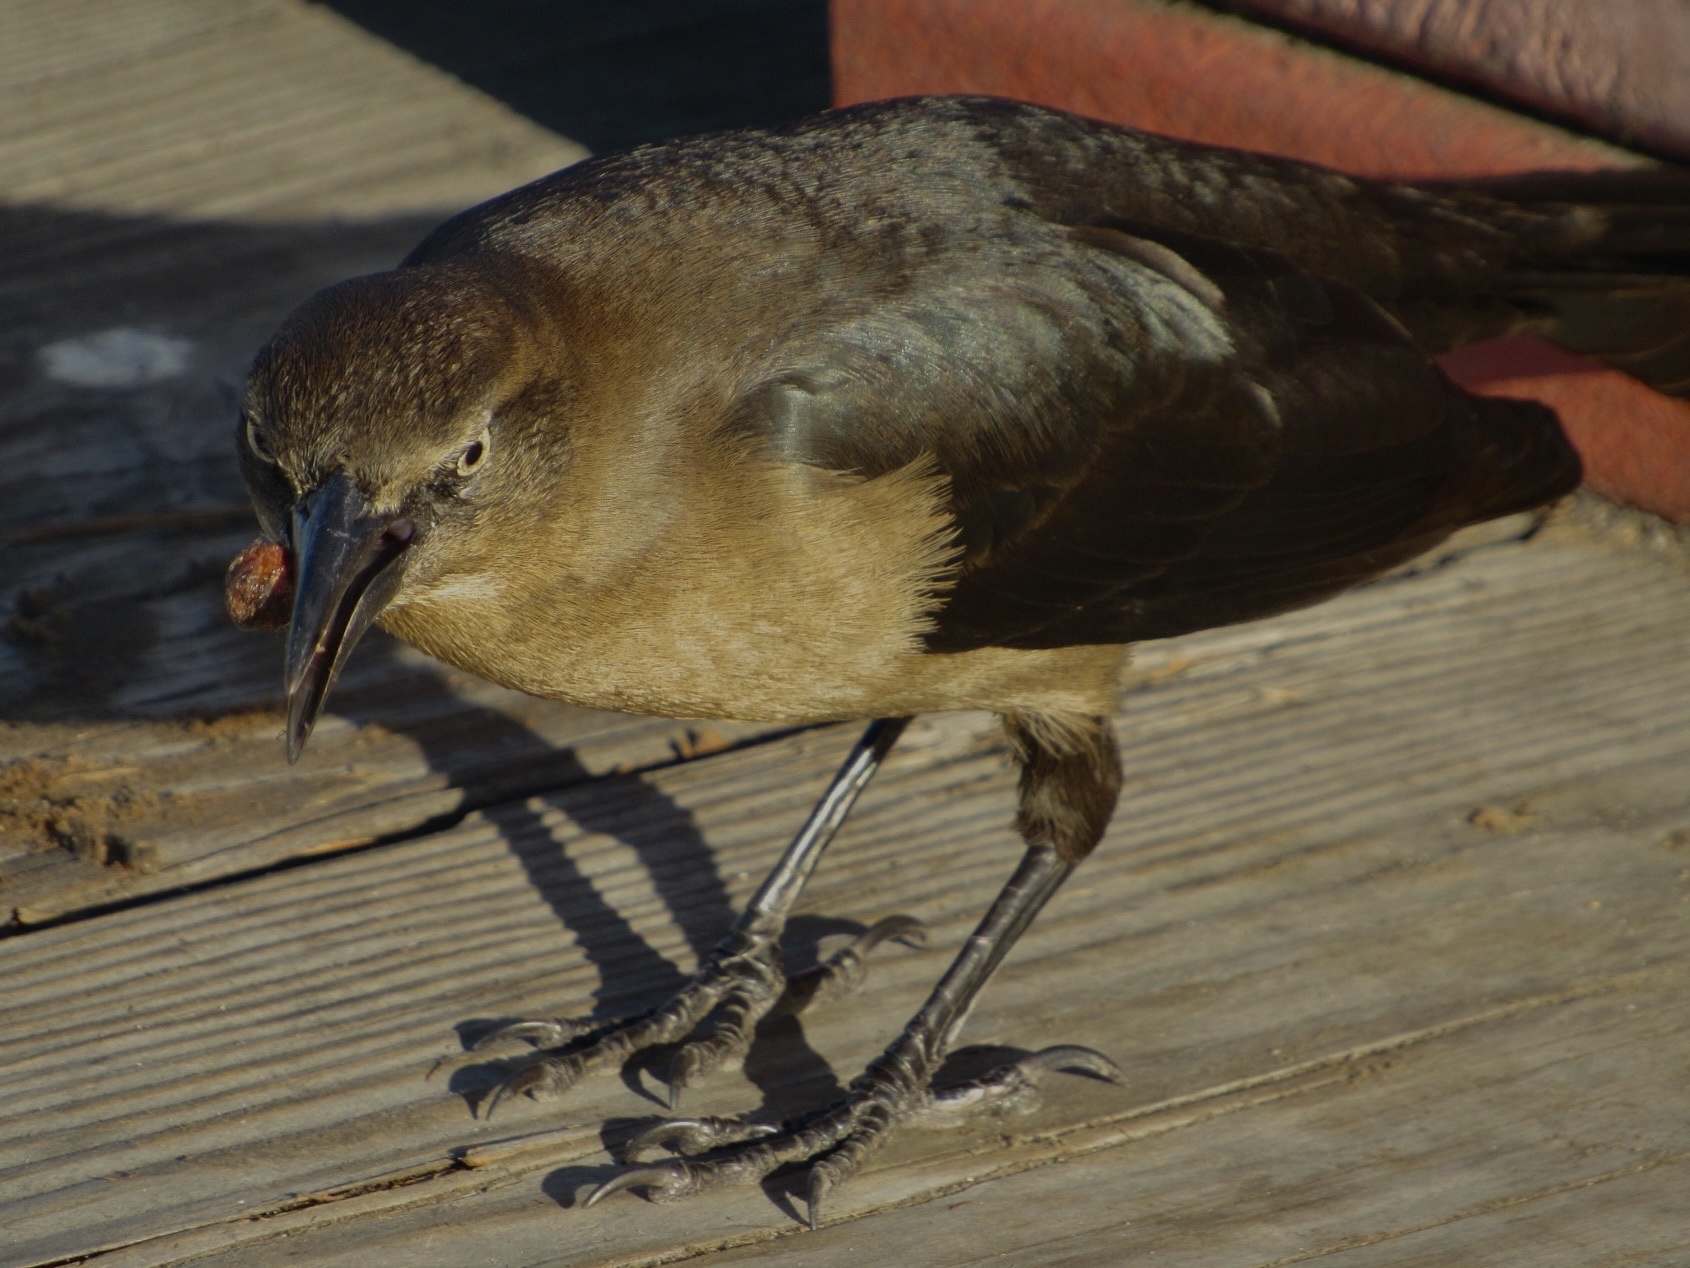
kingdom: Animalia
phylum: Chordata
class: Aves
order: Passeriformes
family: Icteridae
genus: Quiscalus
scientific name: Quiscalus mexicanus
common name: Great-tailed grackle
